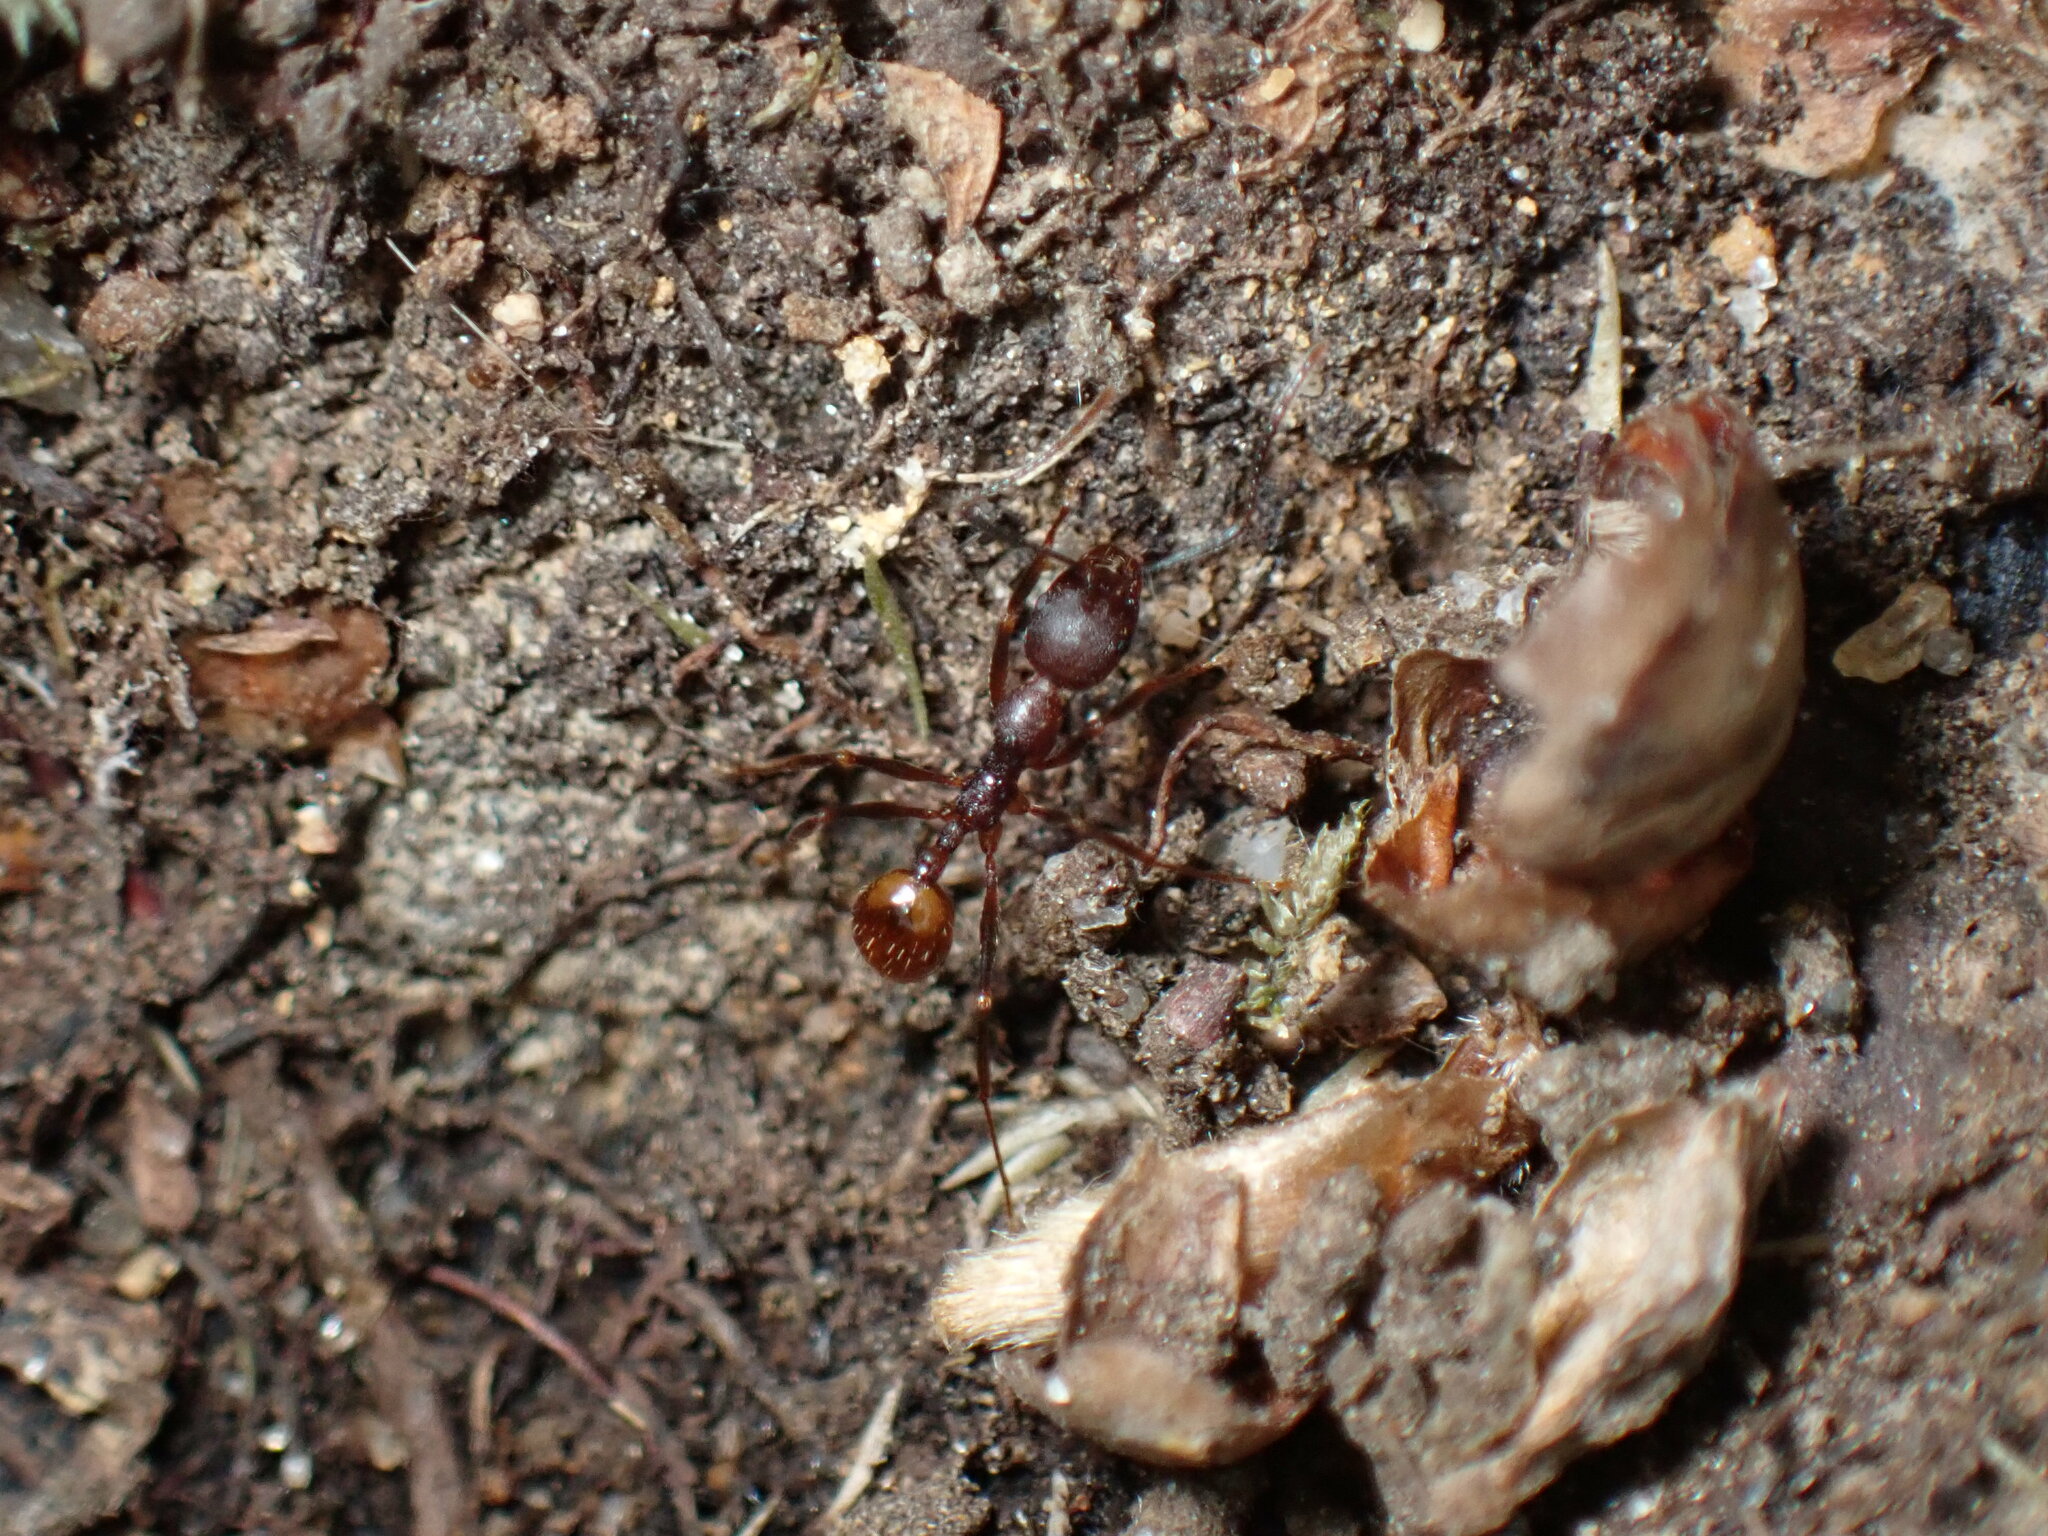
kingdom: Animalia
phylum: Arthropoda
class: Insecta
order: Hymenoptera
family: Formicidae
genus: Aphaenogaster
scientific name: Aphaenogaster fulva
